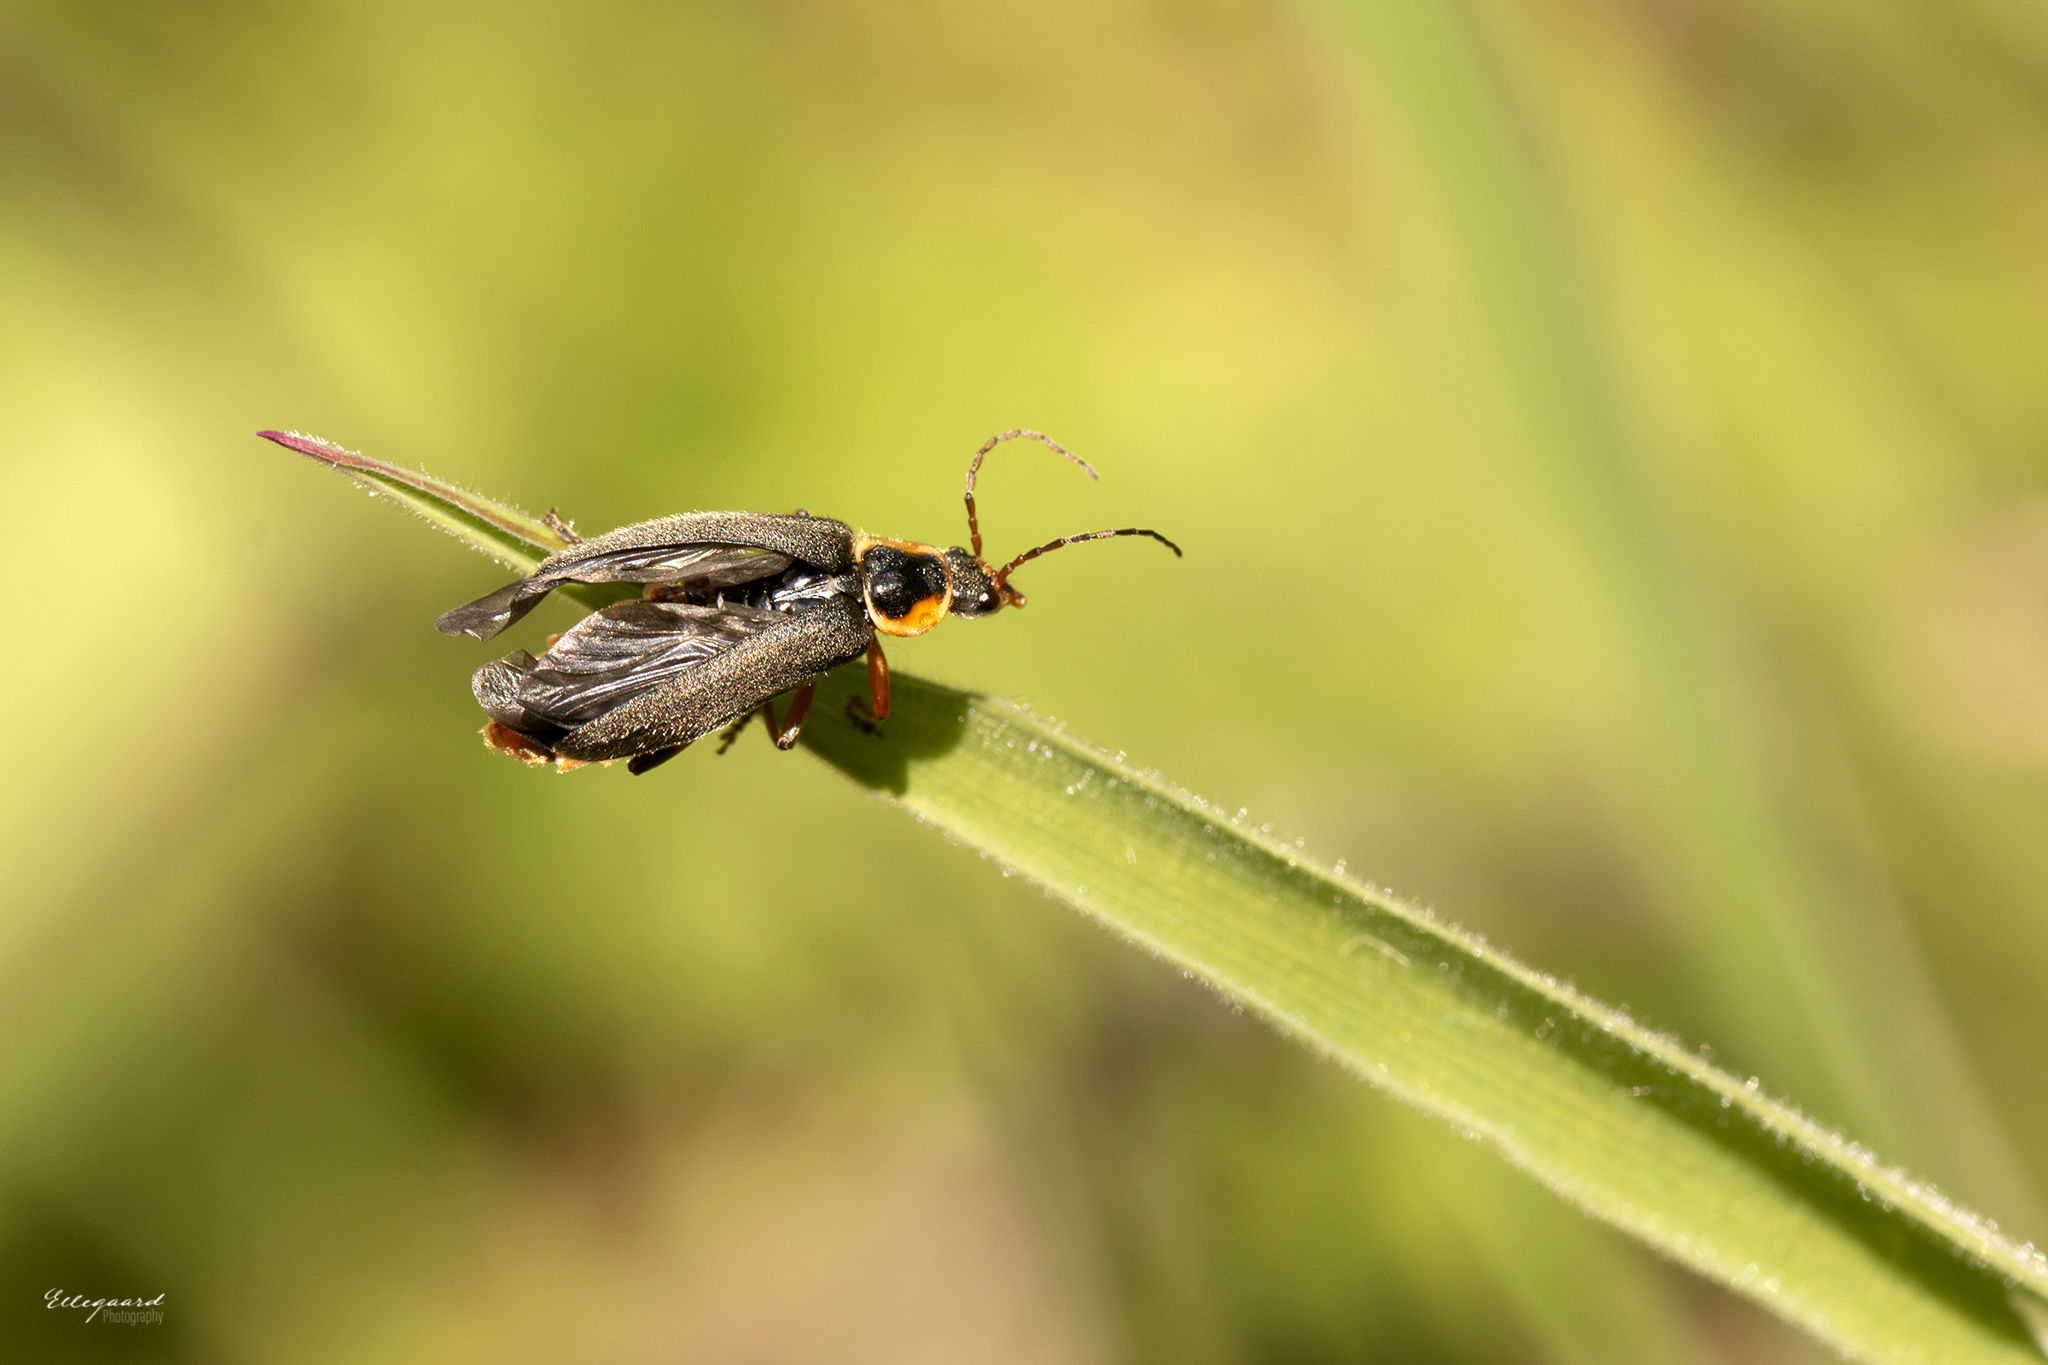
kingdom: Animalia
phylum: Arthropoda
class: Insecta
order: Coleoptera
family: Cantharidae
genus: Cantharis
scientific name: Cantharis nigricans
